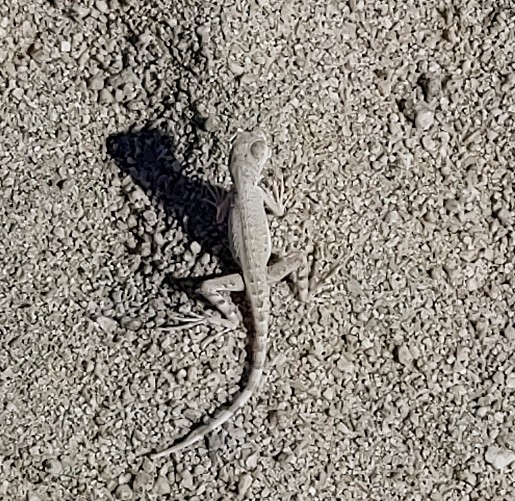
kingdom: Animalia
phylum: Chordata
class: Squamata
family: Phrynosomatidae
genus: Callisaurus
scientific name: Callisaurus draconoides
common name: Zebra-tailed lizard
